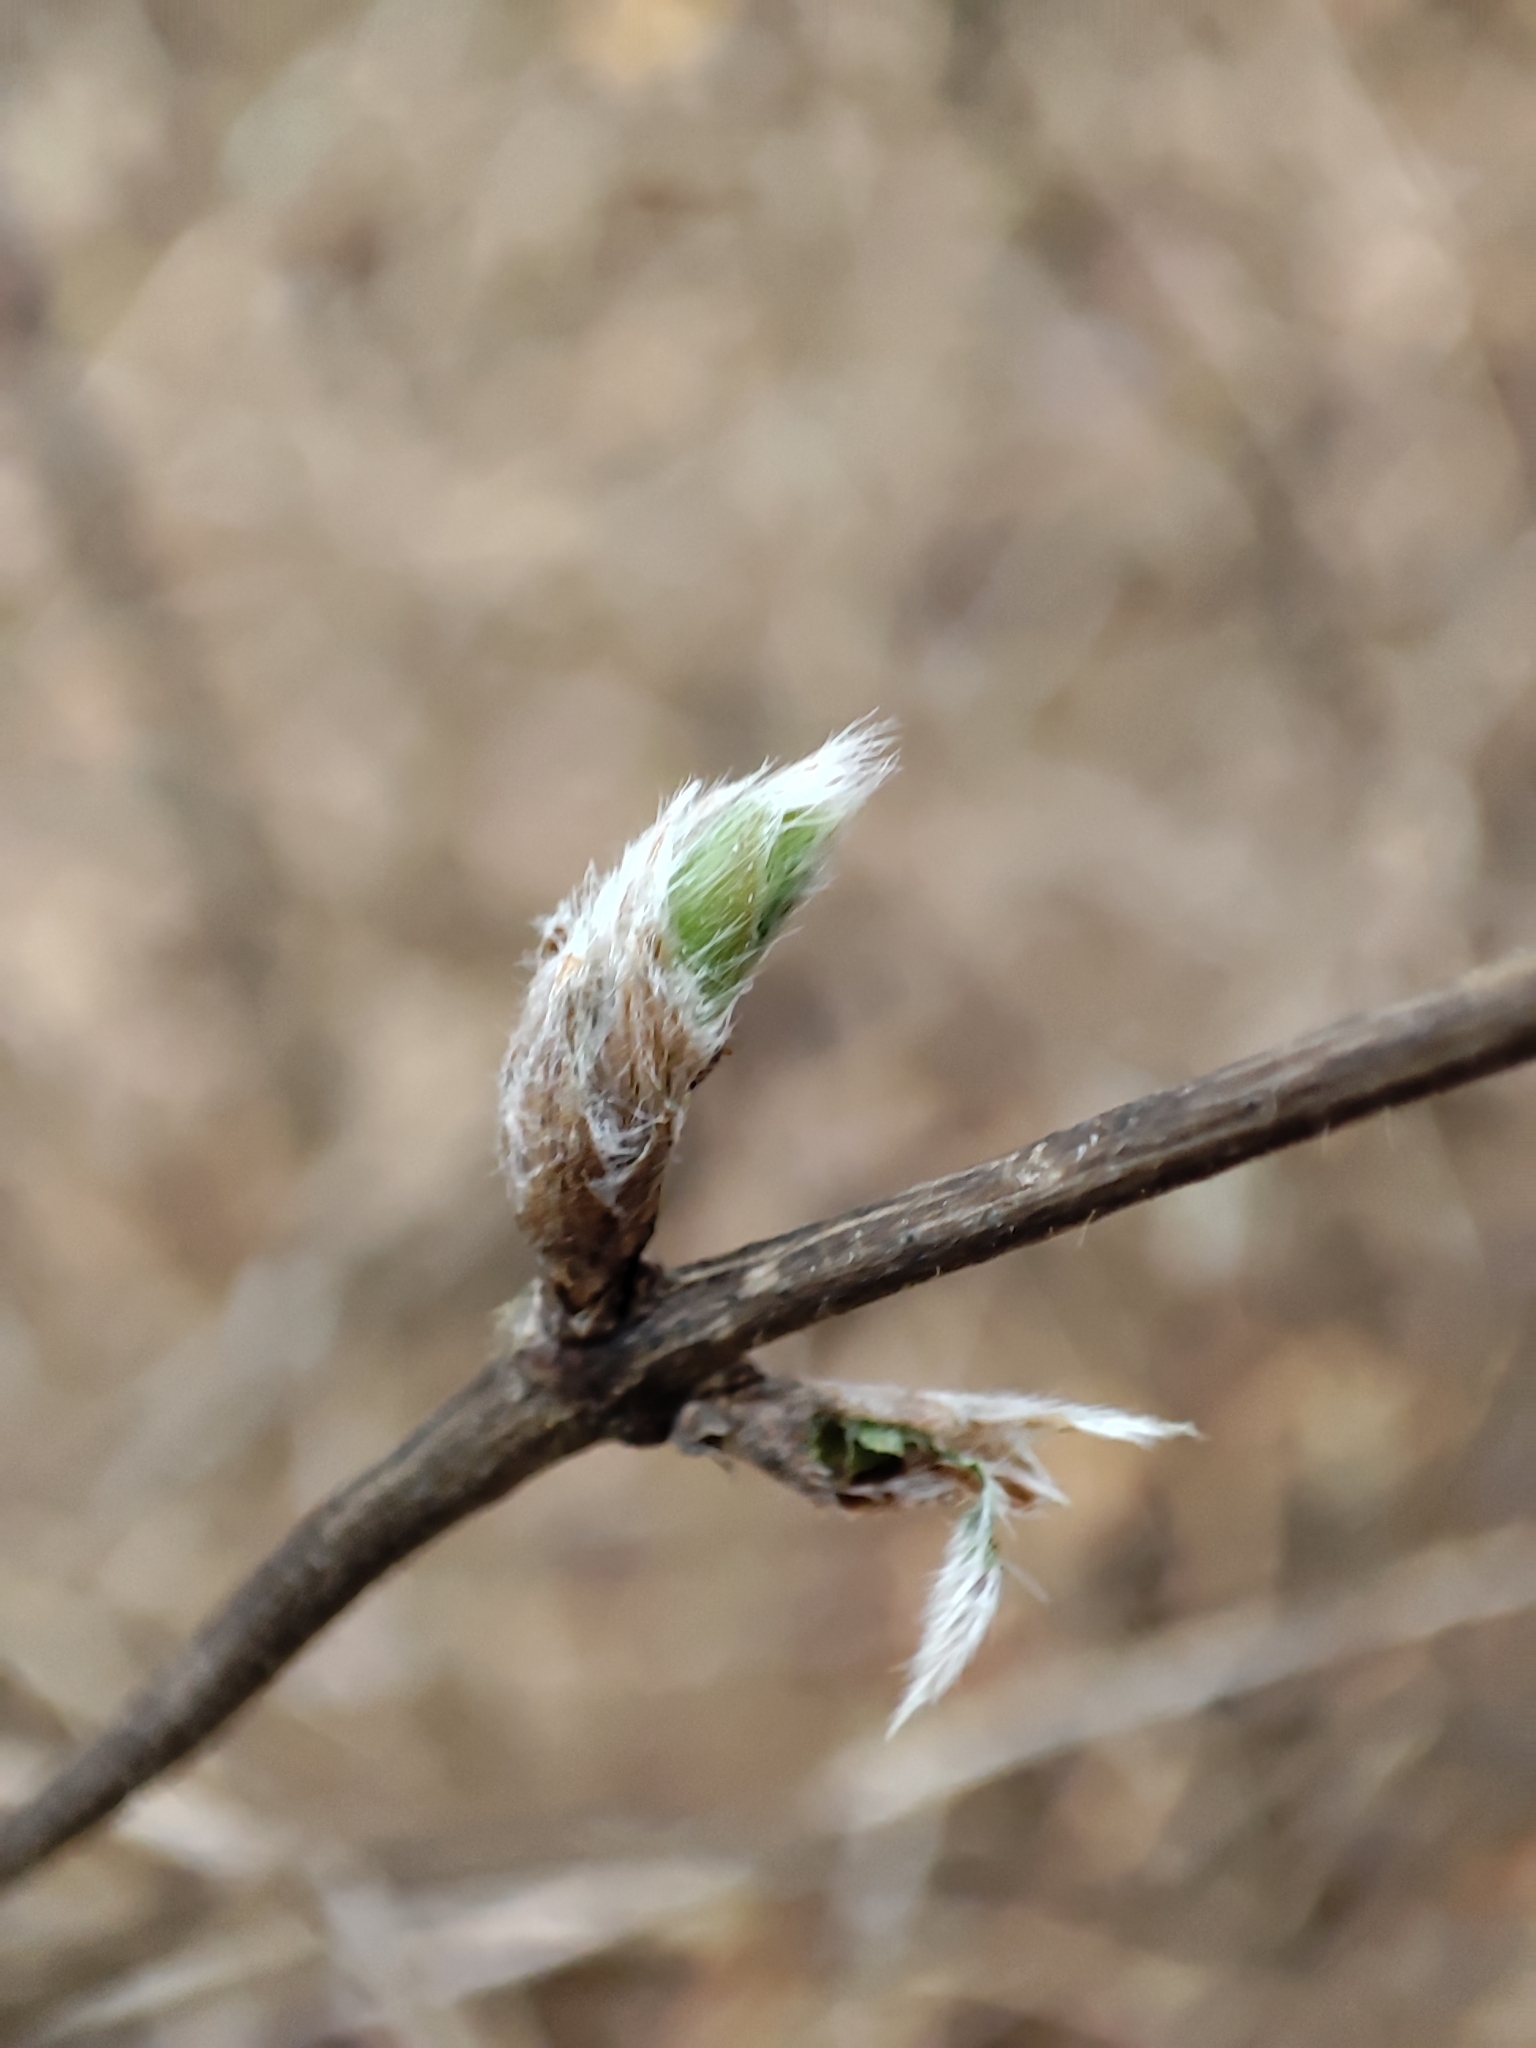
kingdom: Plantae
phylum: Tracheophyta
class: Magnoliopsida
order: Dipsacales
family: Caprifoliaceae
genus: Lonicera
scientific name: Lonicera xylosteum
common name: Fly honeysuckle
